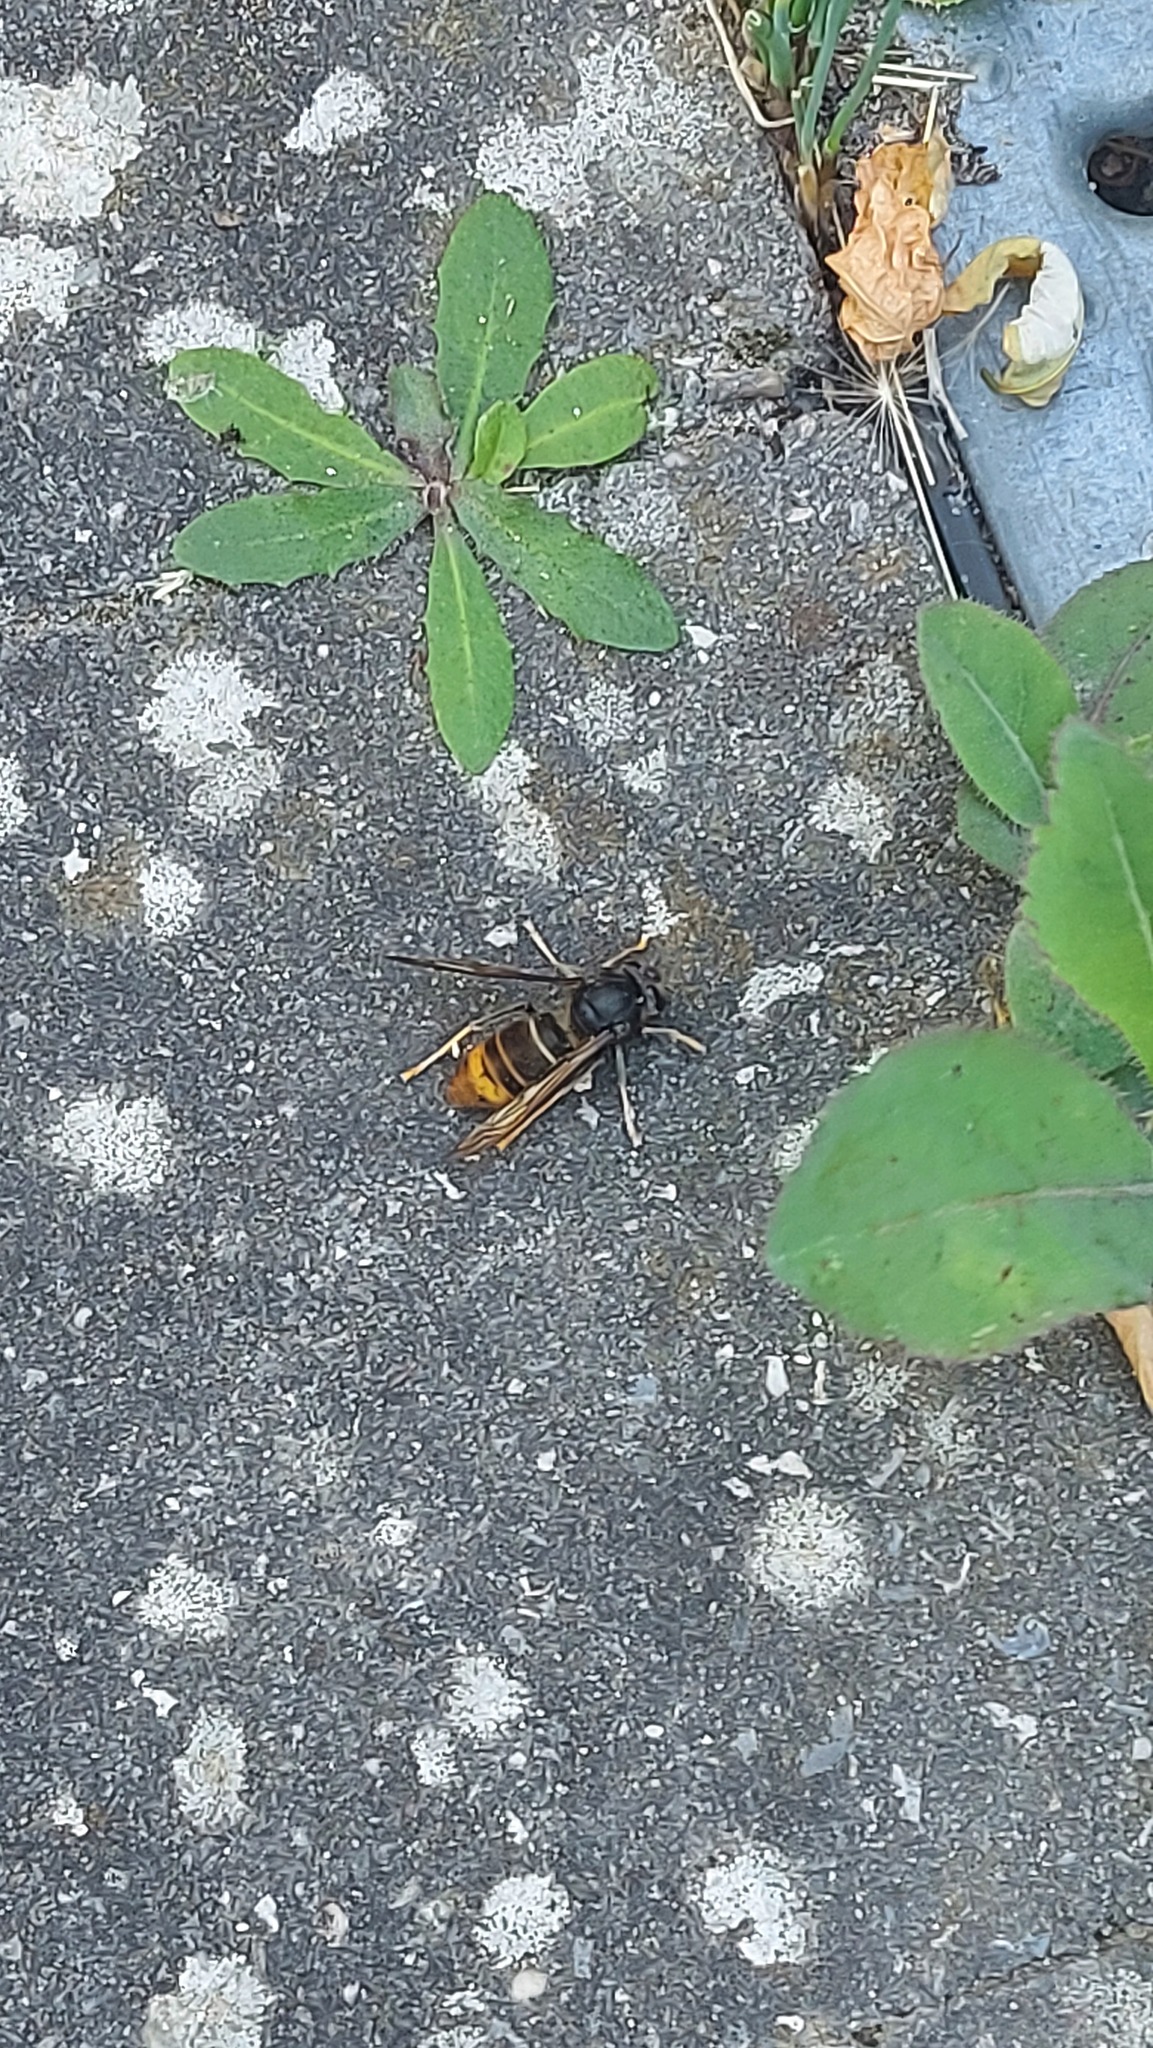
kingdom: Animalia
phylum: Arthropoda
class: Insecta
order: Hymenoptera
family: Vespidae
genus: Vespa
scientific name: Vespa velutina
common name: Asian hornet
